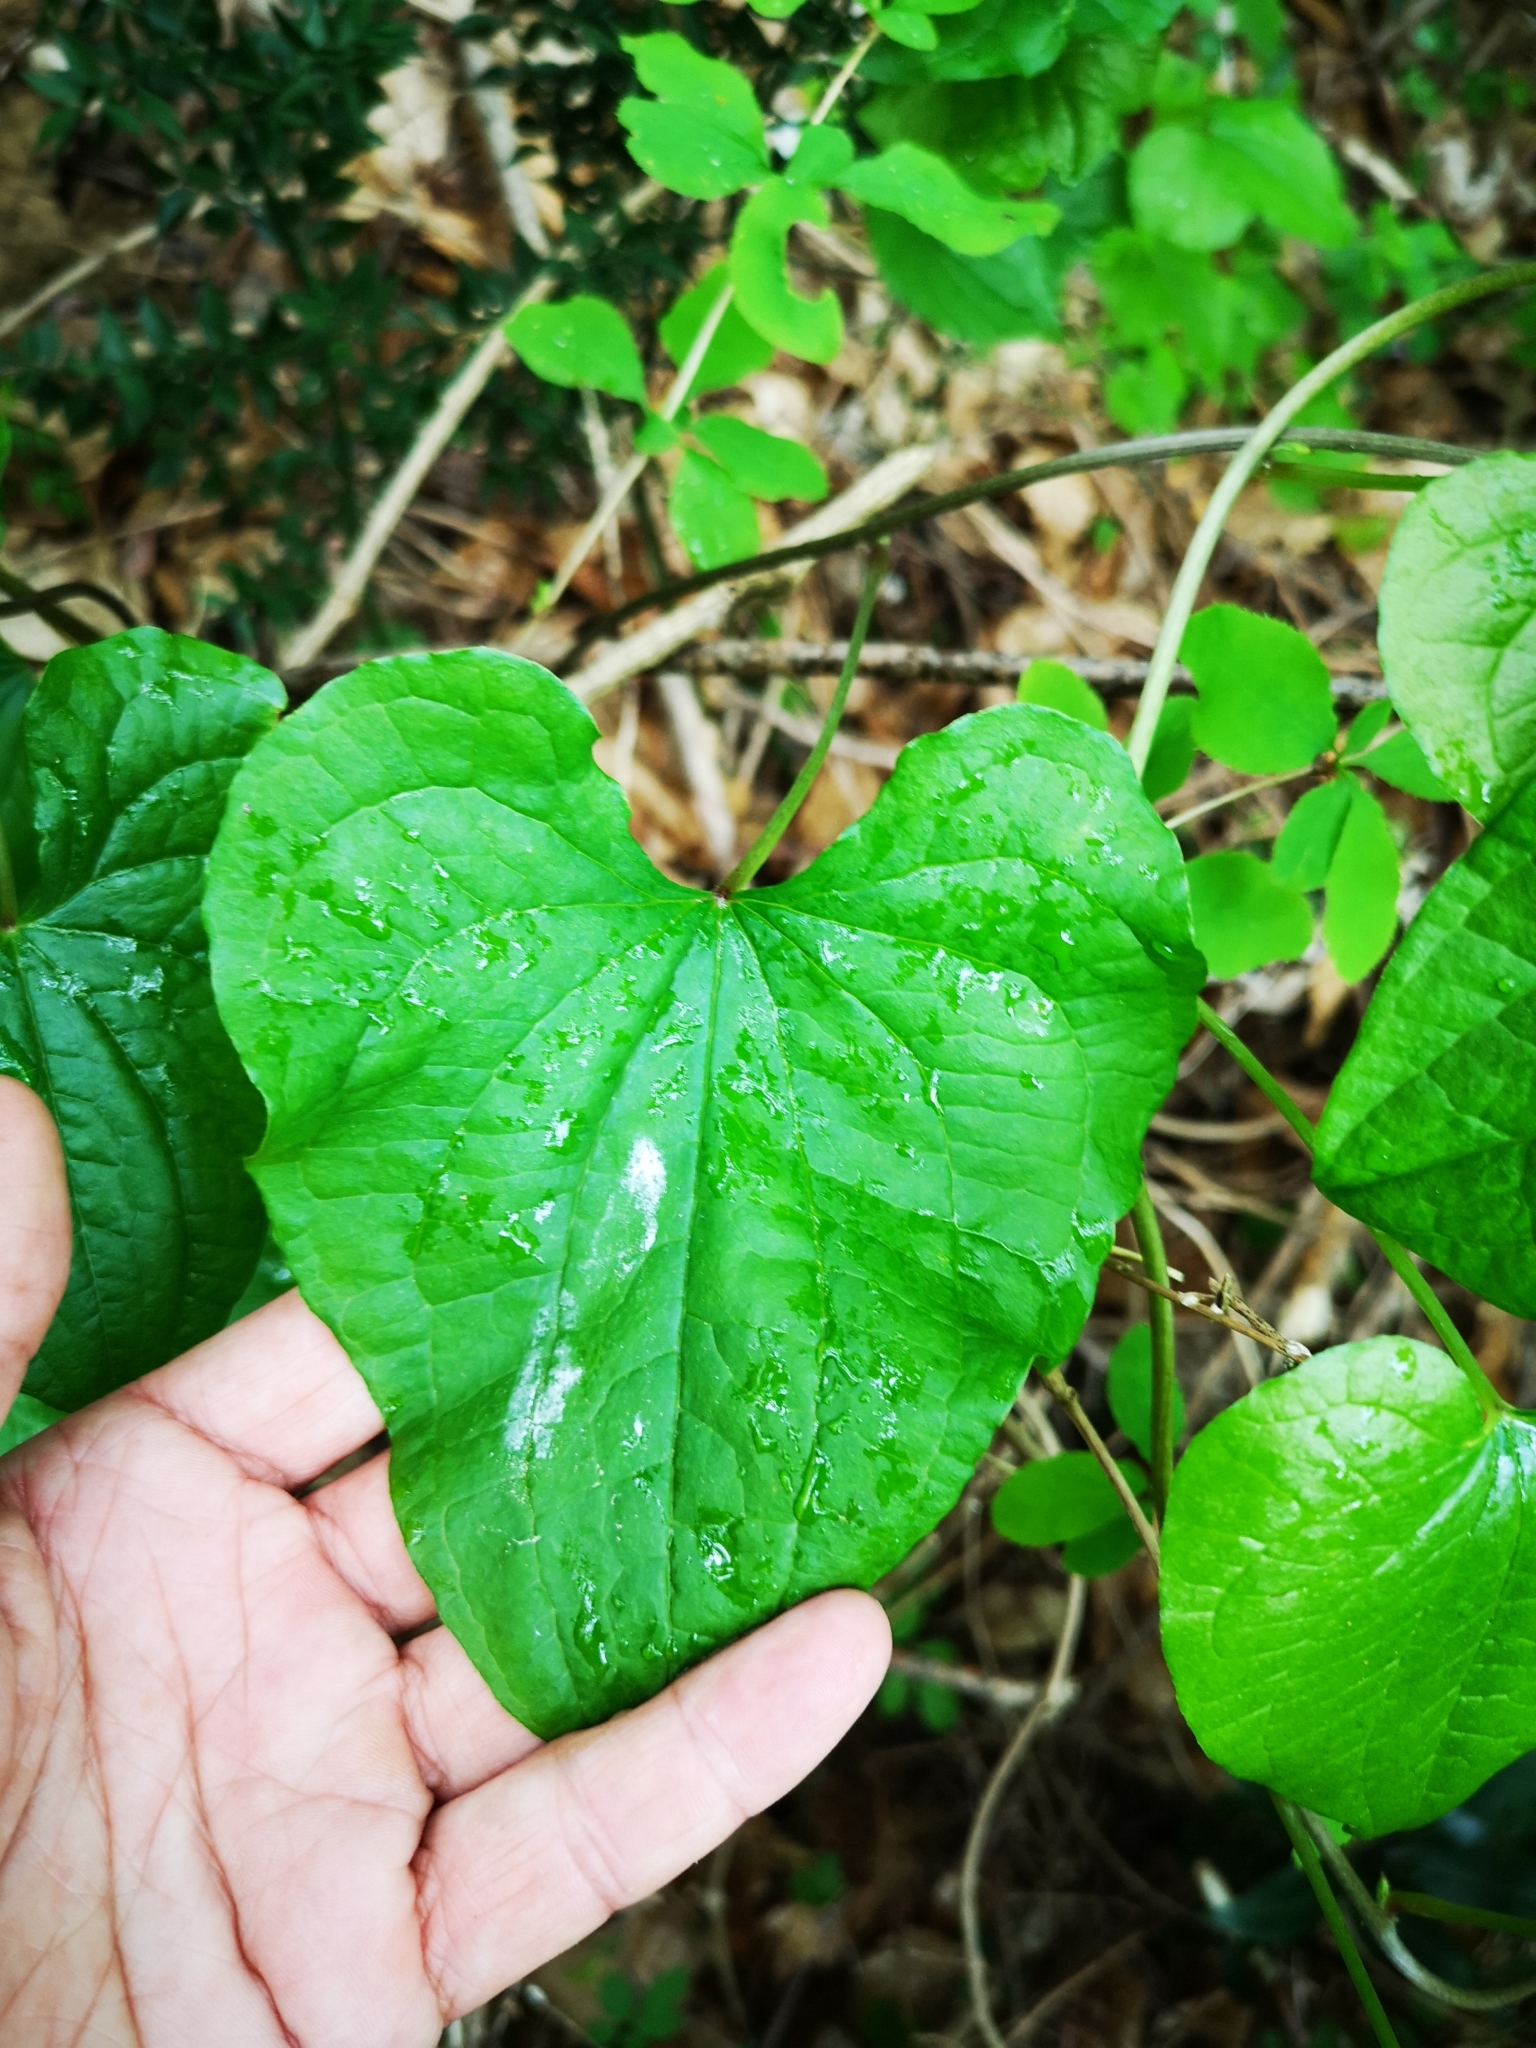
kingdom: Plantae
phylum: Tracheophyta
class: Liliopsida
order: Dioscoreales
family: Dioscoreaceae
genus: Dioscorea
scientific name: Dioscorea communis
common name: Black-bindweed
